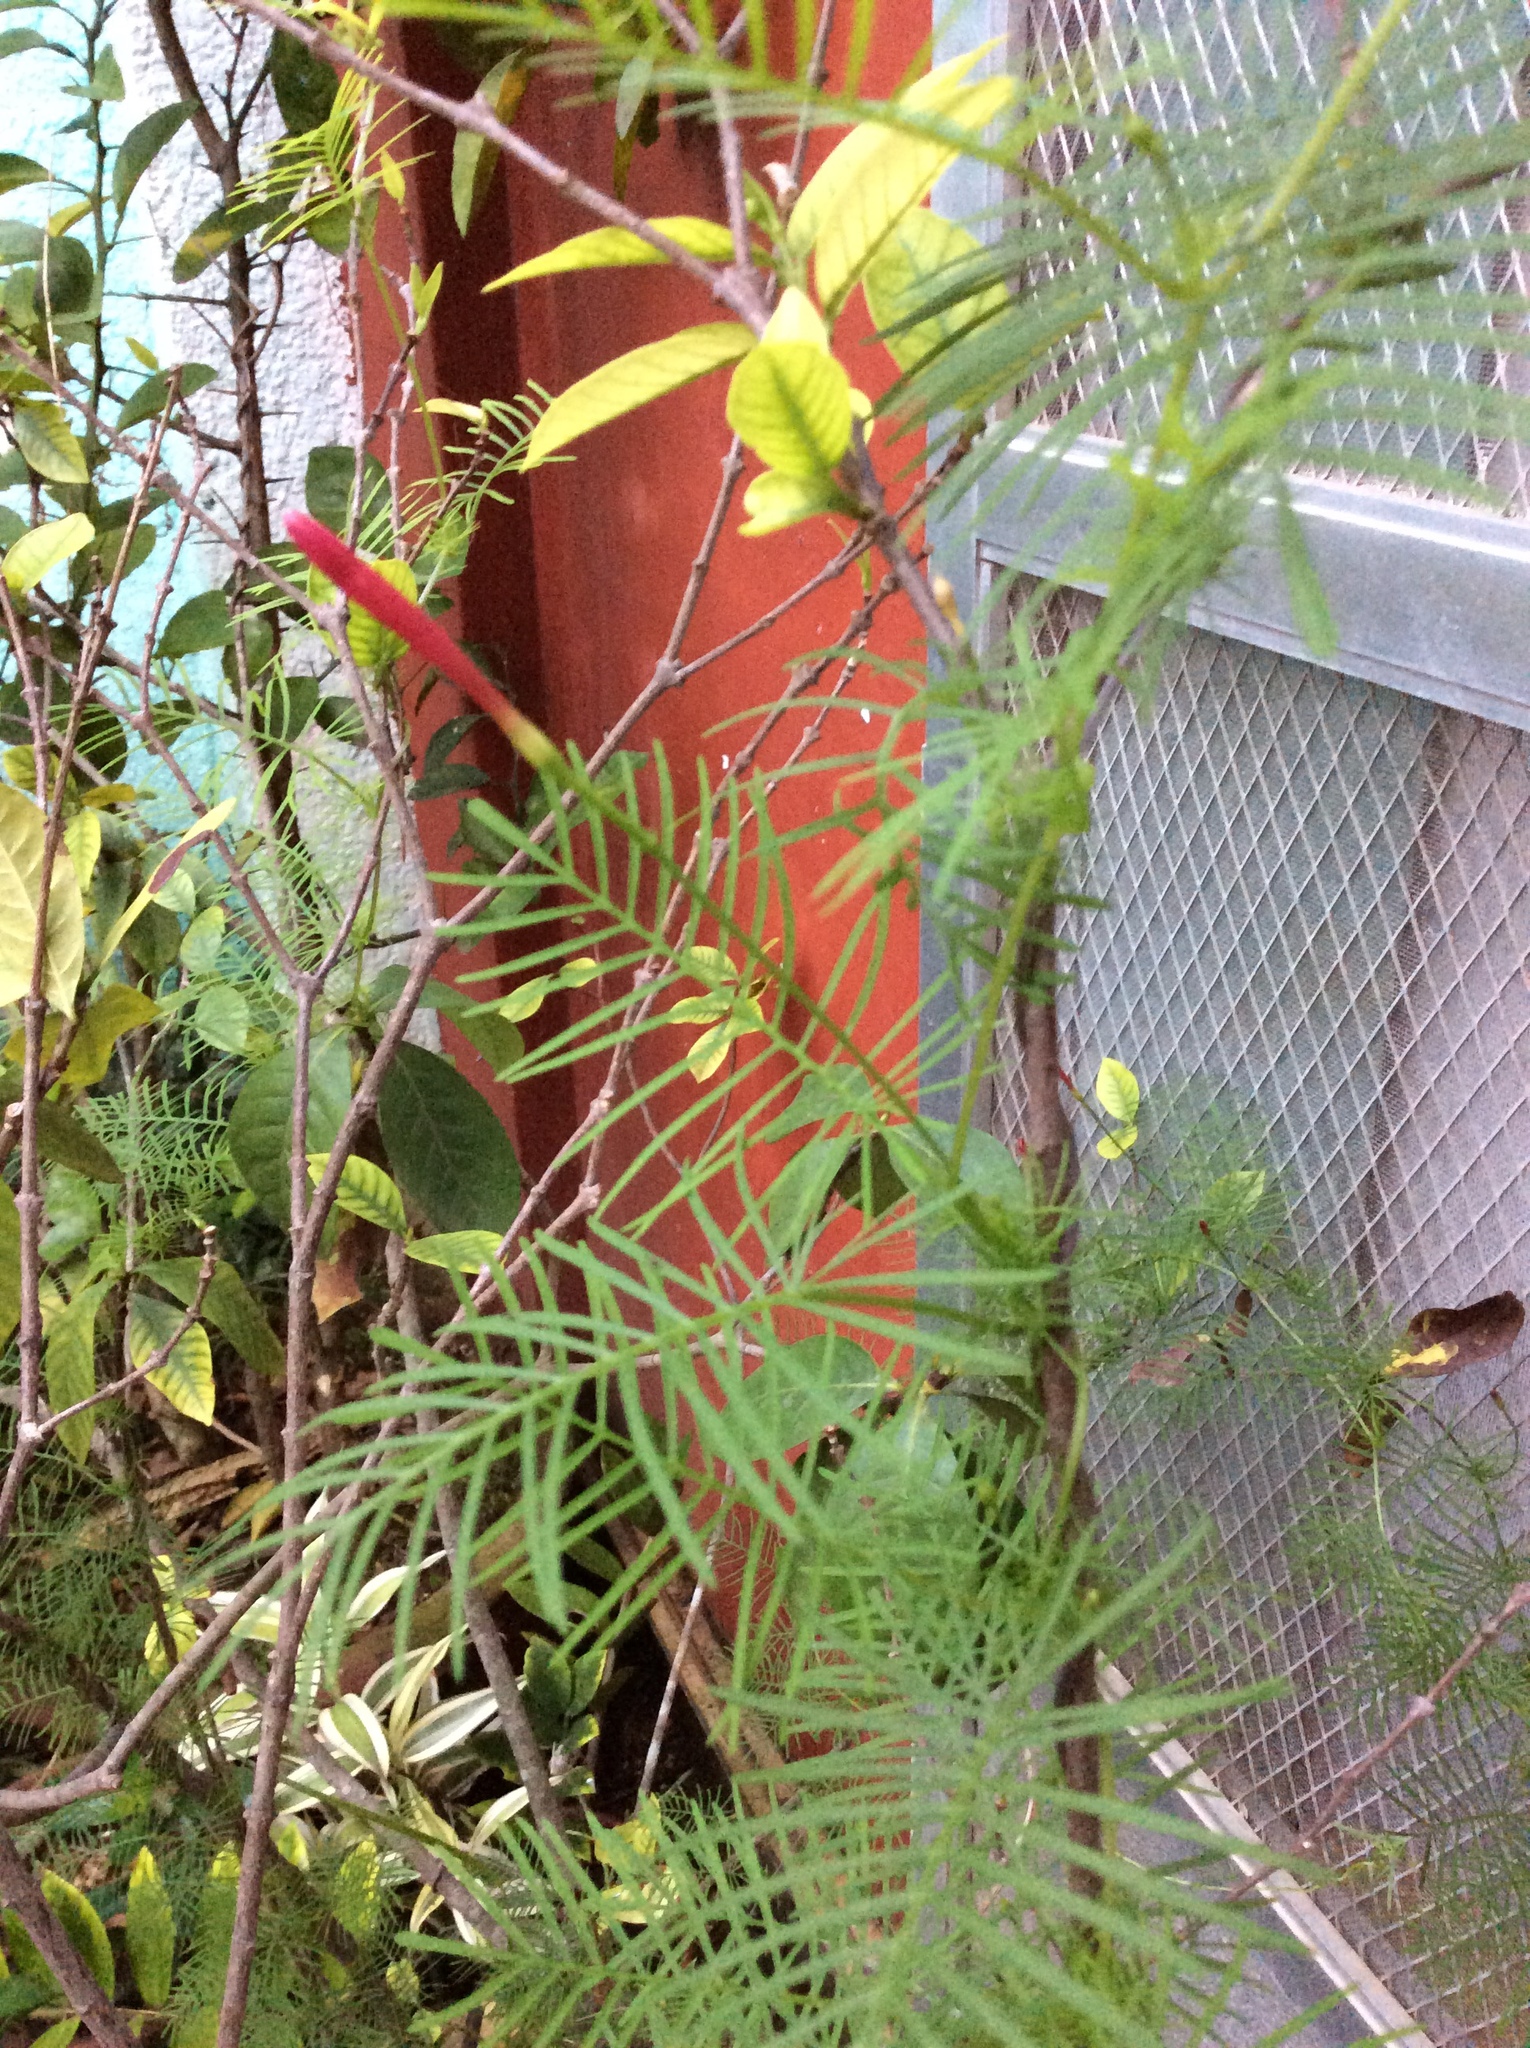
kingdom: Plantae
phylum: Tracheophyta
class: Magnoliopsida
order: Solanales
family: Convolvulaceae
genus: Ipomoea
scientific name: Ipomoea quamoclit
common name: Cypress vine
